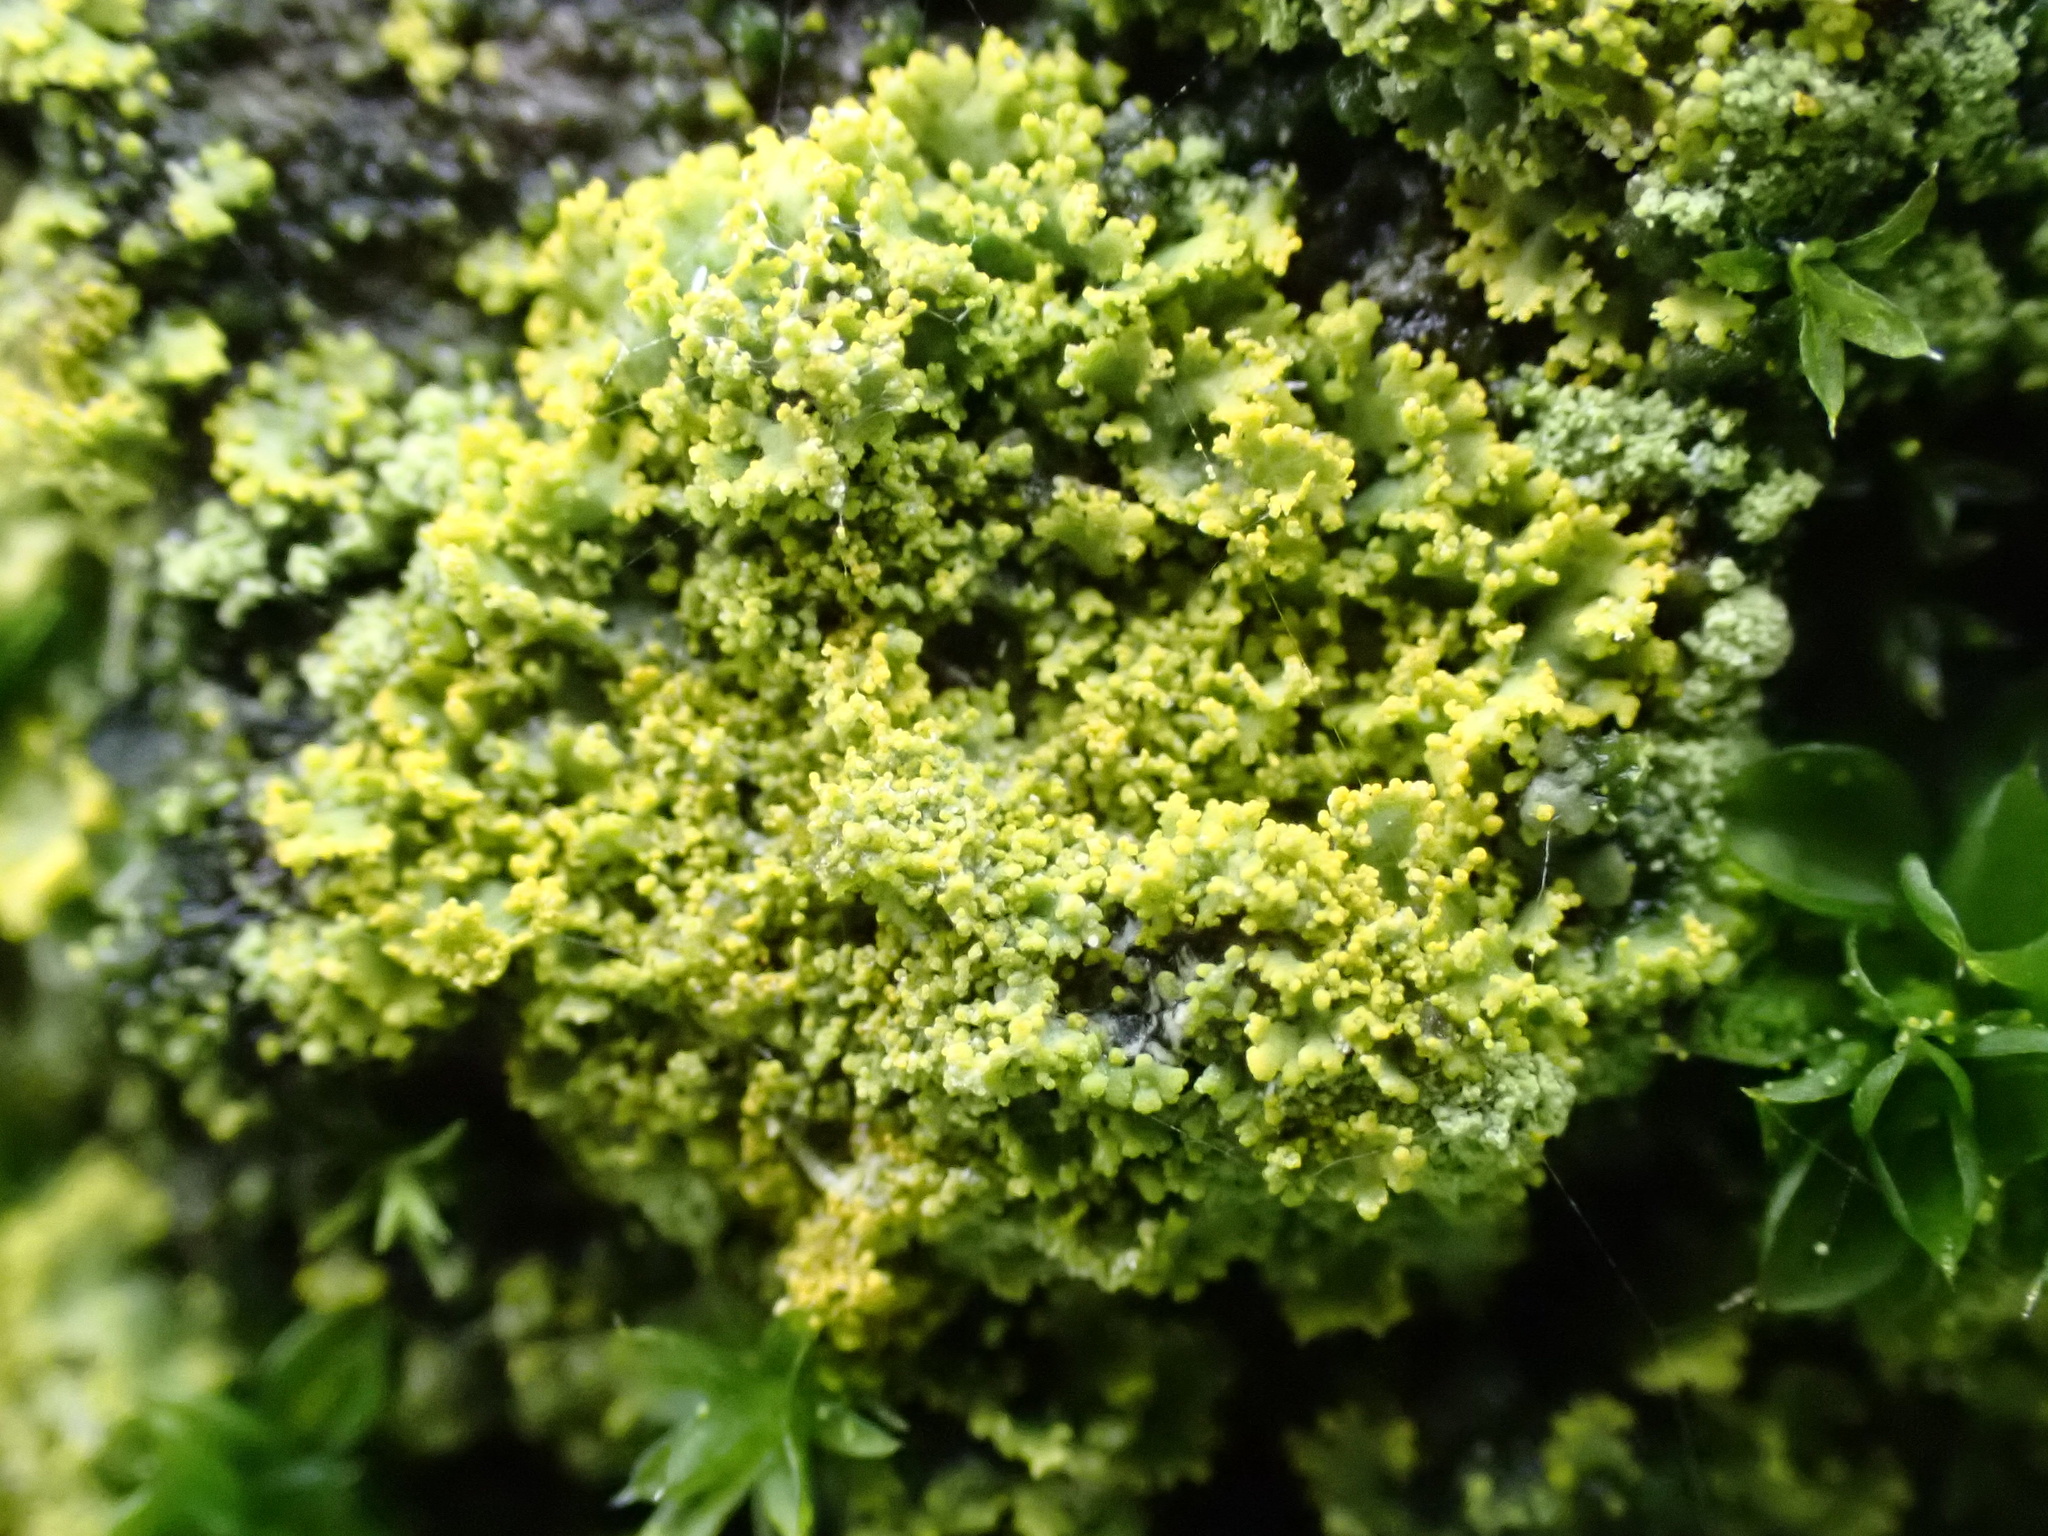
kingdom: Fungi
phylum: Ascomycota
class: Candelariomycetes
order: Candelariales
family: Candelariaceae
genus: Candelaria
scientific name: Candelaria concolor
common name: Candleflame lichen
